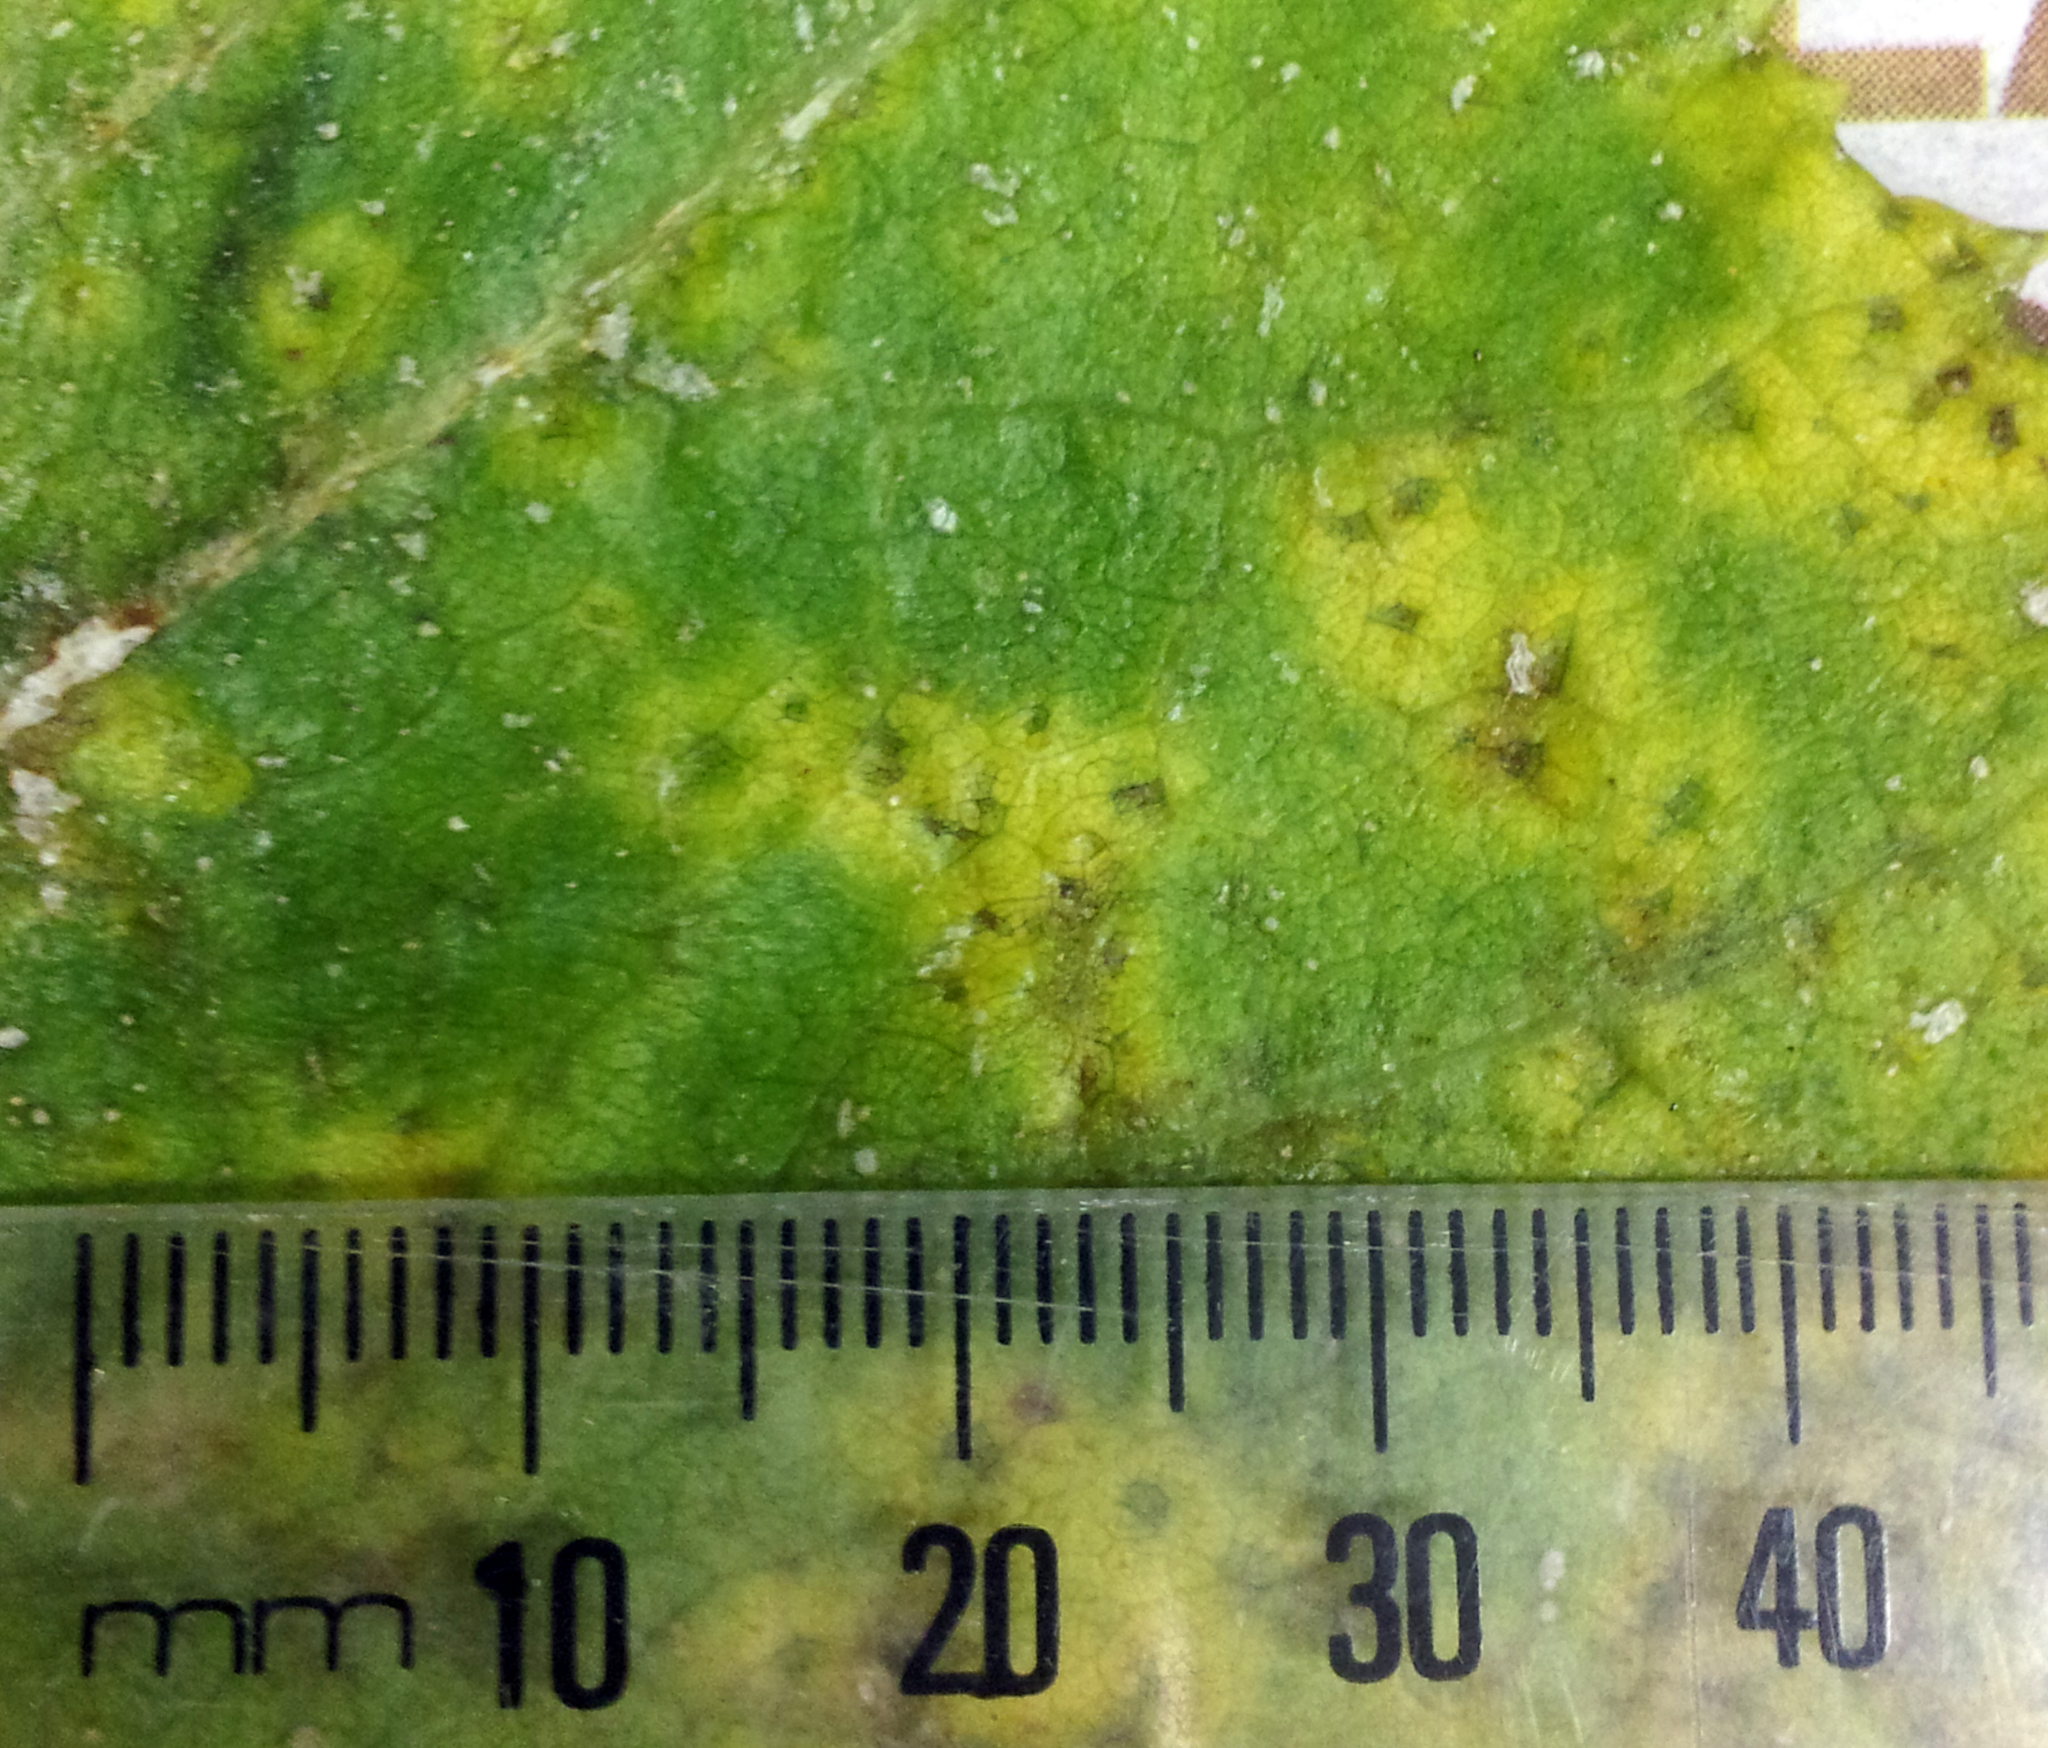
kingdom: Fungi
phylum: Basidiomycota
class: Pucciniomycetes
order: Pucciniales
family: Pucciniaceae
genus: Puccinia
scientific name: Puccinia embergeriae
